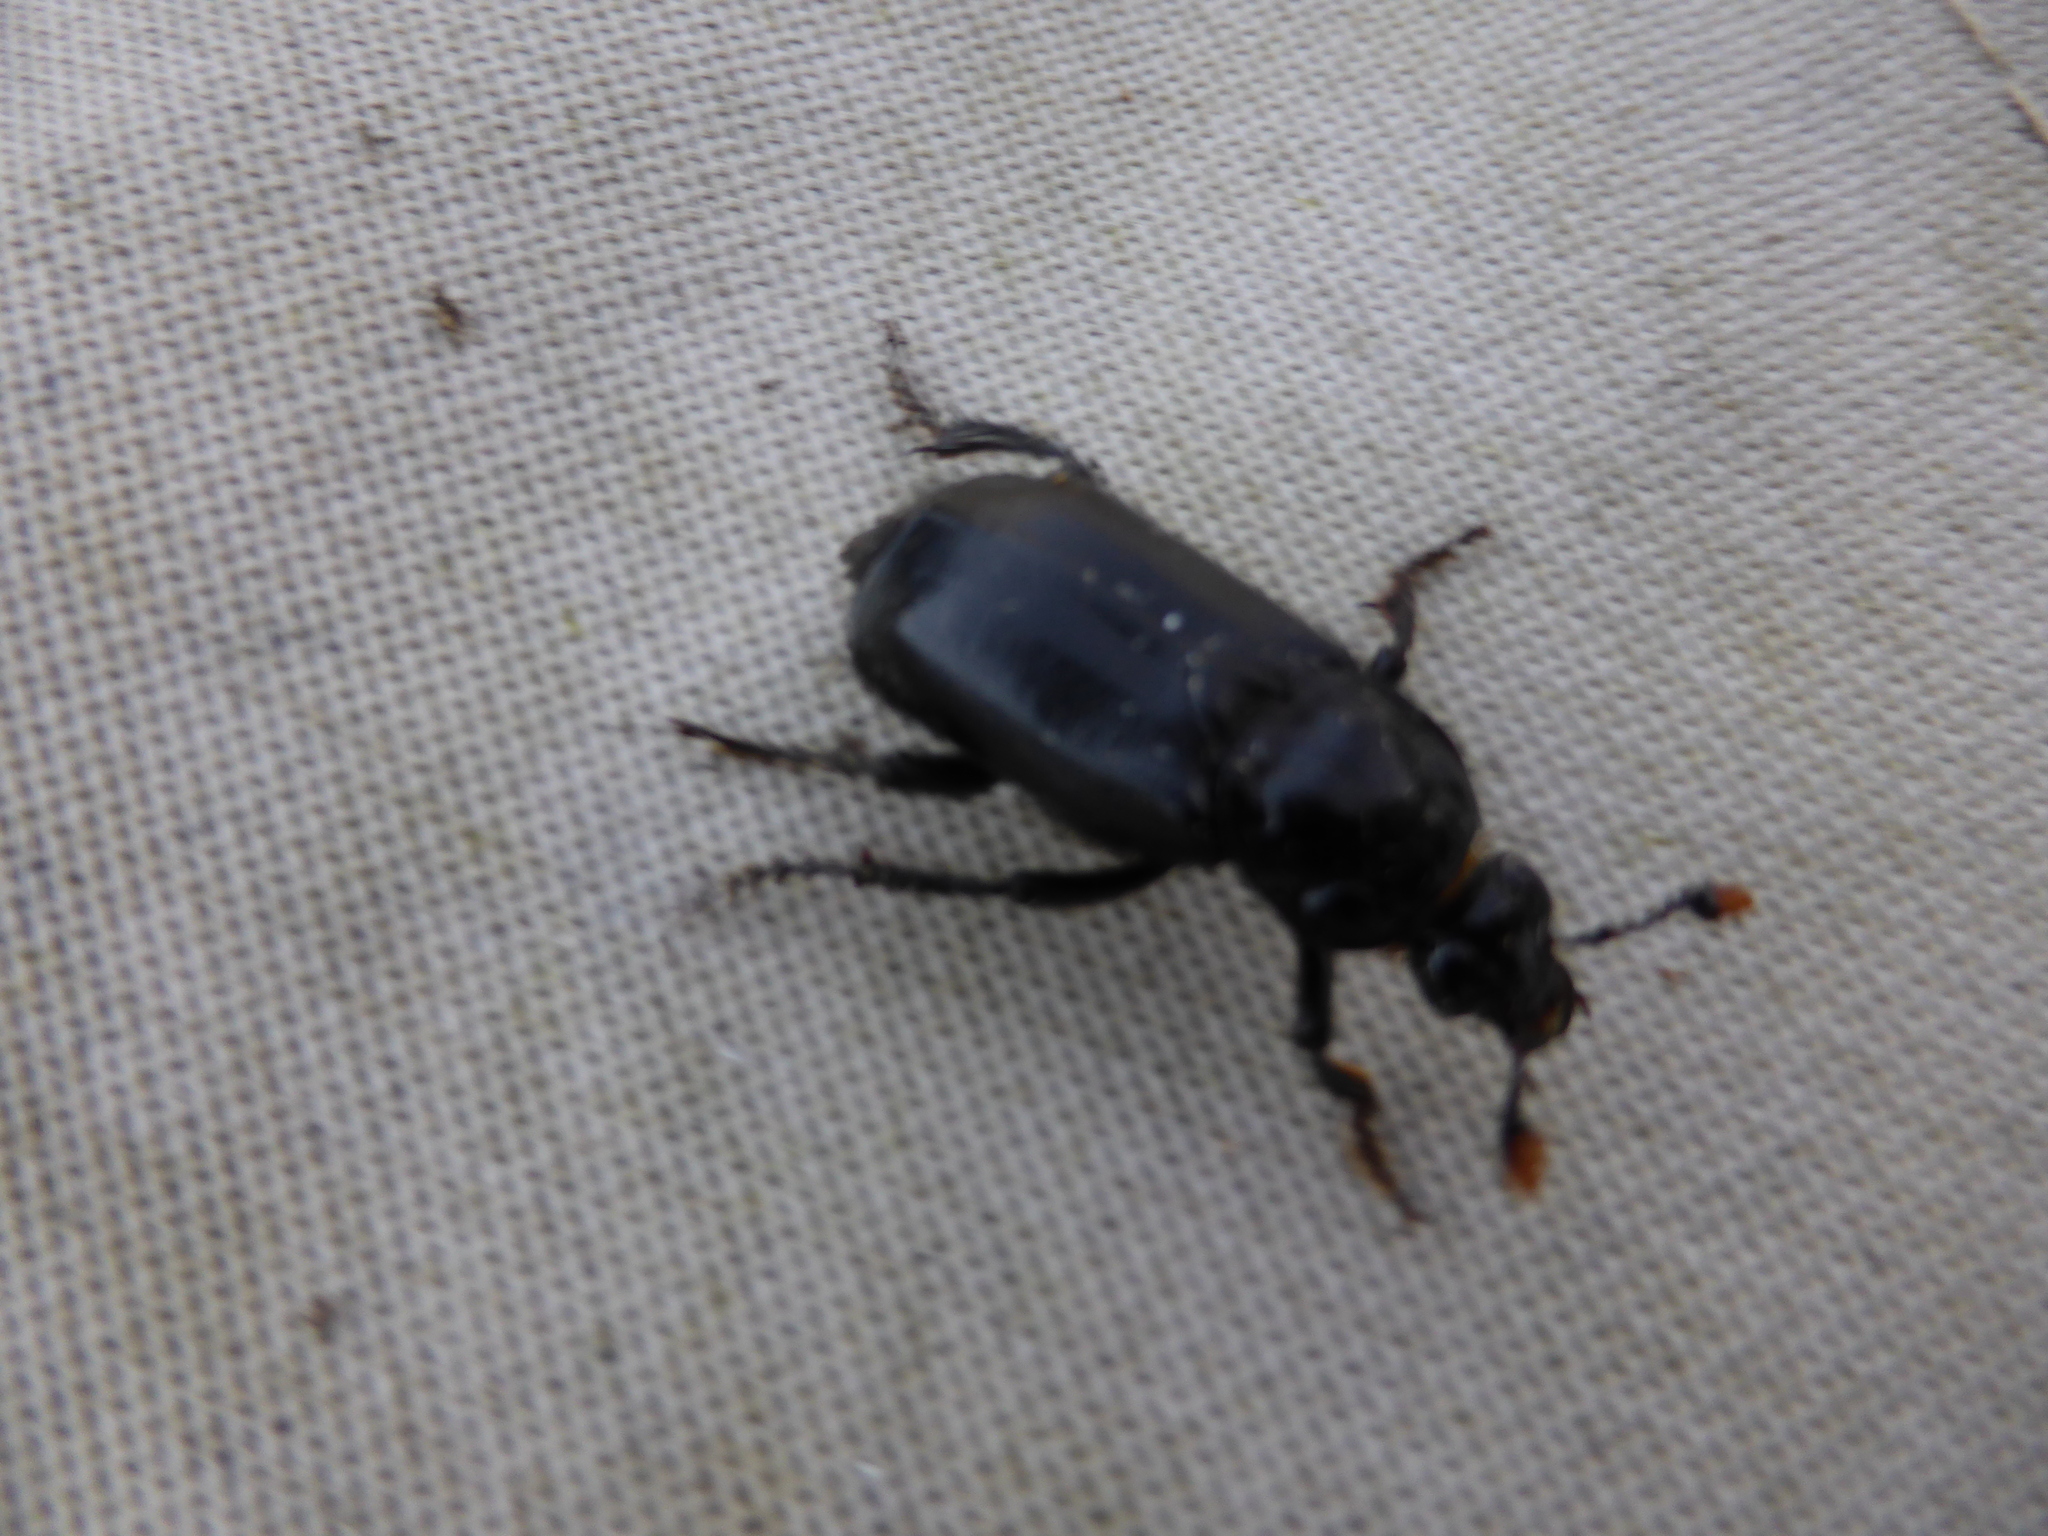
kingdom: Animalia
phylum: Arthropoda
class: Insecta
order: Coleoptera
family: Staphylinidae
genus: Nicrophorus
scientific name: Nicrophorus humator
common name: Black sexton beetle
